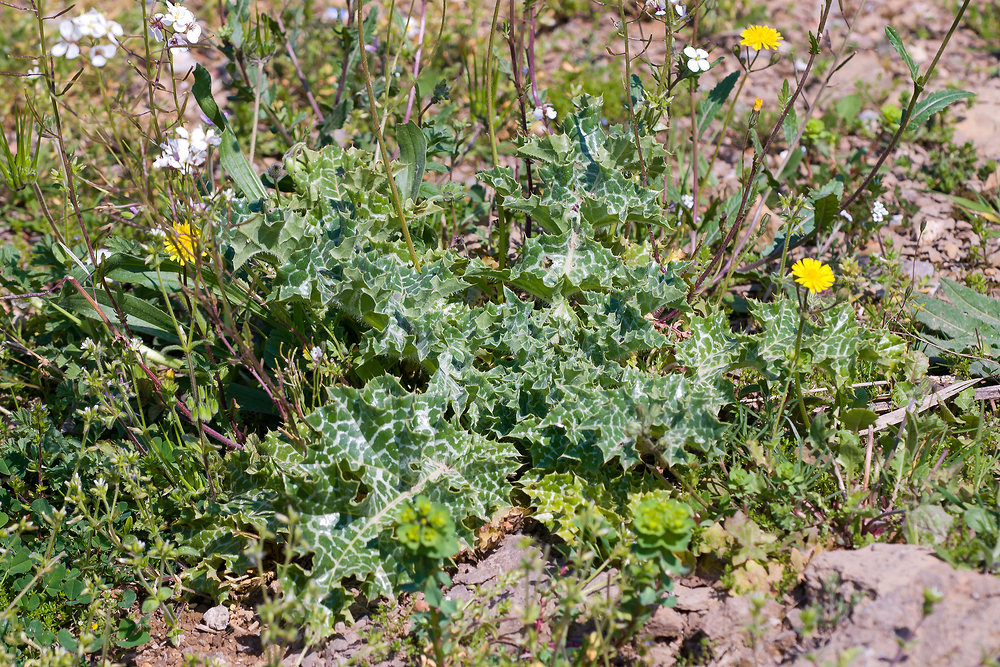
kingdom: Plantae
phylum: Tracheophyta
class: Magnoliopsida
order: Asterales
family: Asteraceae
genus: Silybum
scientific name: Silybum marianum
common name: Milk thistle
